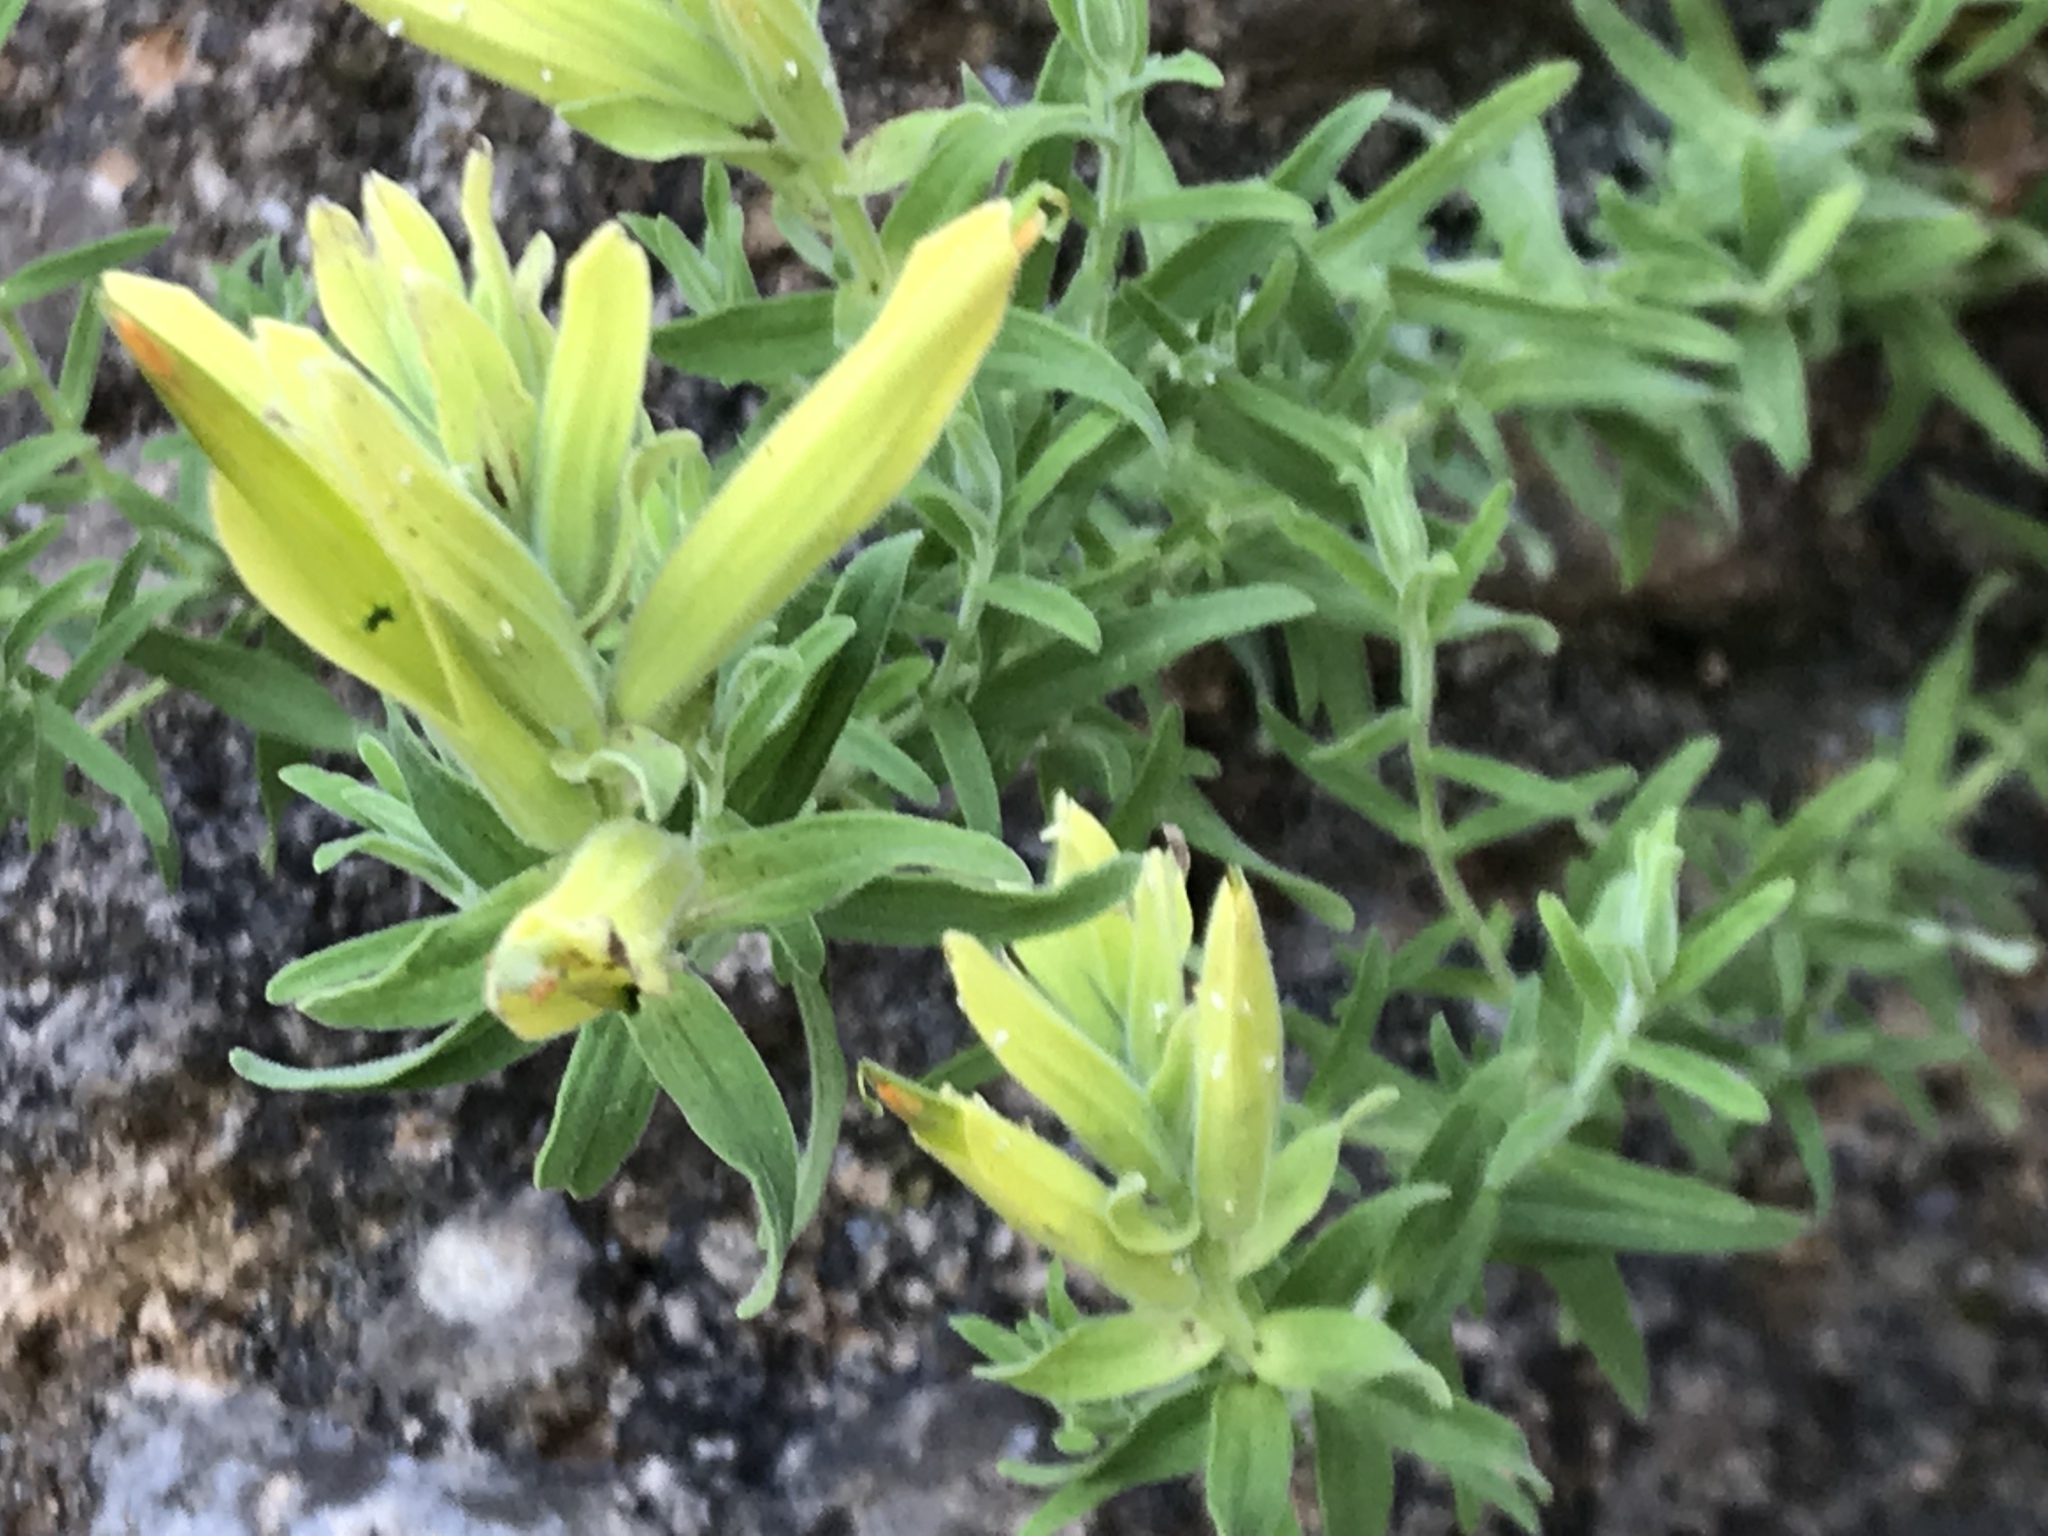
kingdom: Plantae
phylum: Tracheophyta
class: Magnoliopsida
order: Lamiales
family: Orobanchaceae
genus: Castilleja
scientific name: Castilleja tenuiflora
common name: Santa catalina indian paintbrush
